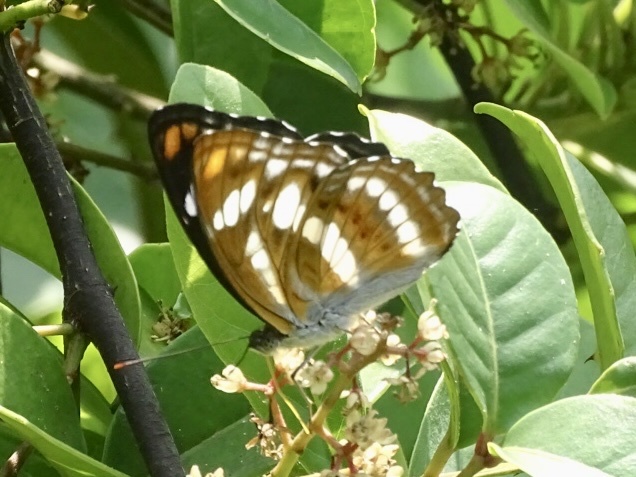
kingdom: Animalia
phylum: Arthropoda
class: Insecta
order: Lepidoptera
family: Nymphalidae
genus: Parathyma
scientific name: Parathyma nefte
